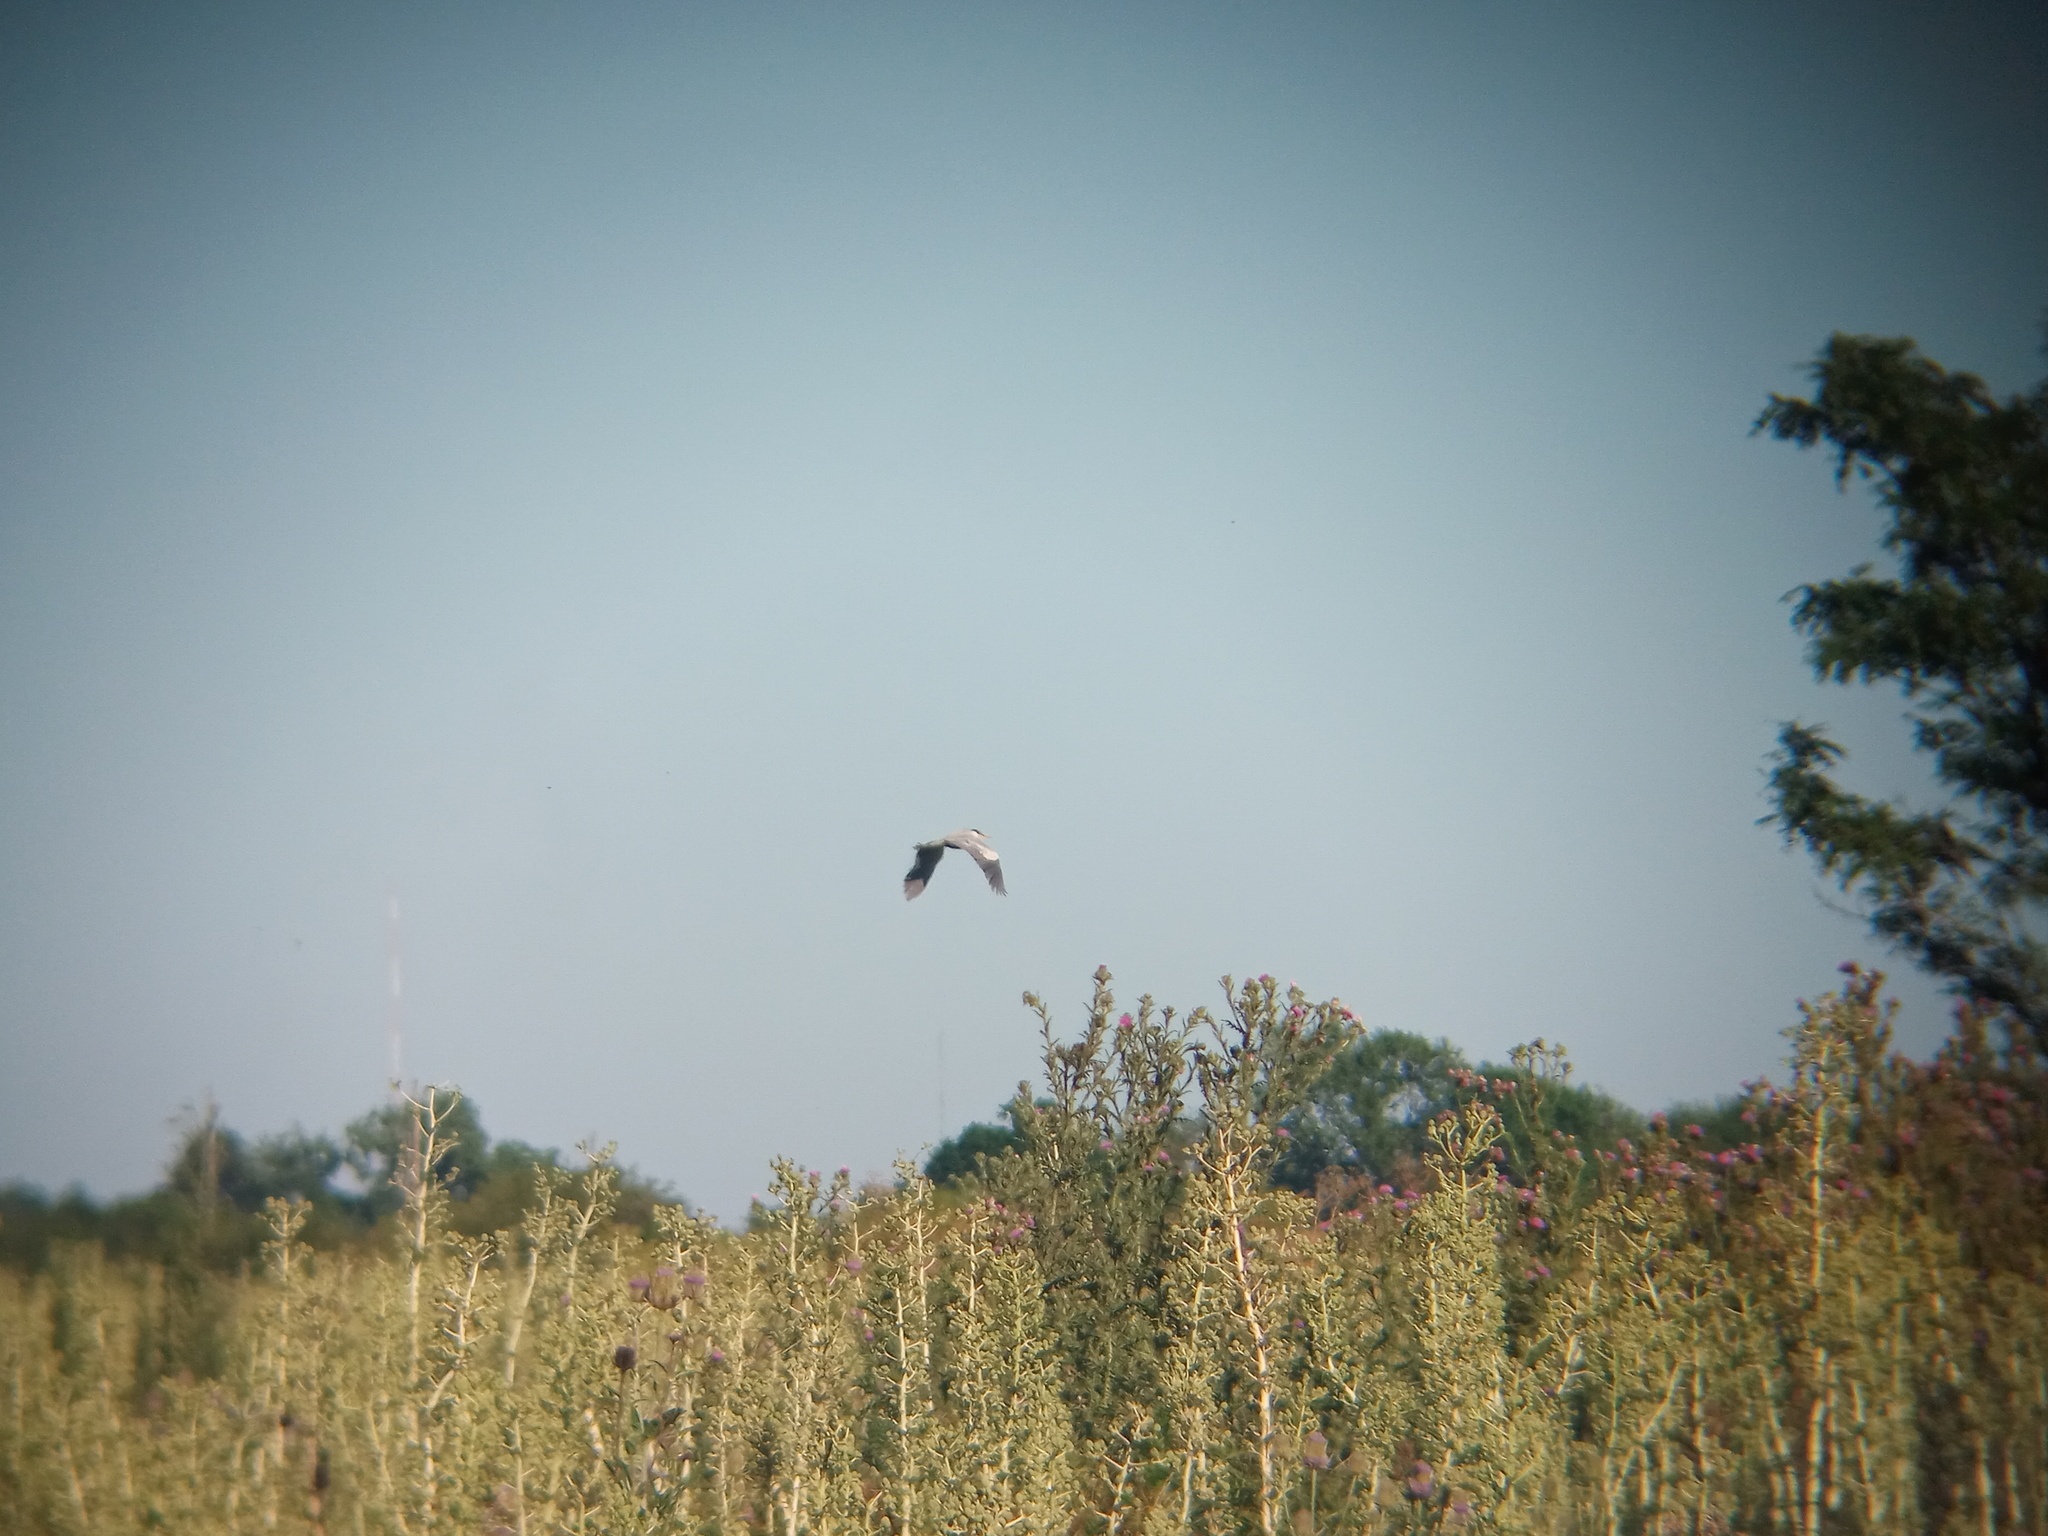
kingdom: Animalia
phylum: Chordata
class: Aves
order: Pelecaniformes
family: Ardeidae
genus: Ardea
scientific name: Ardea cocoi
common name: Cocoi heron
